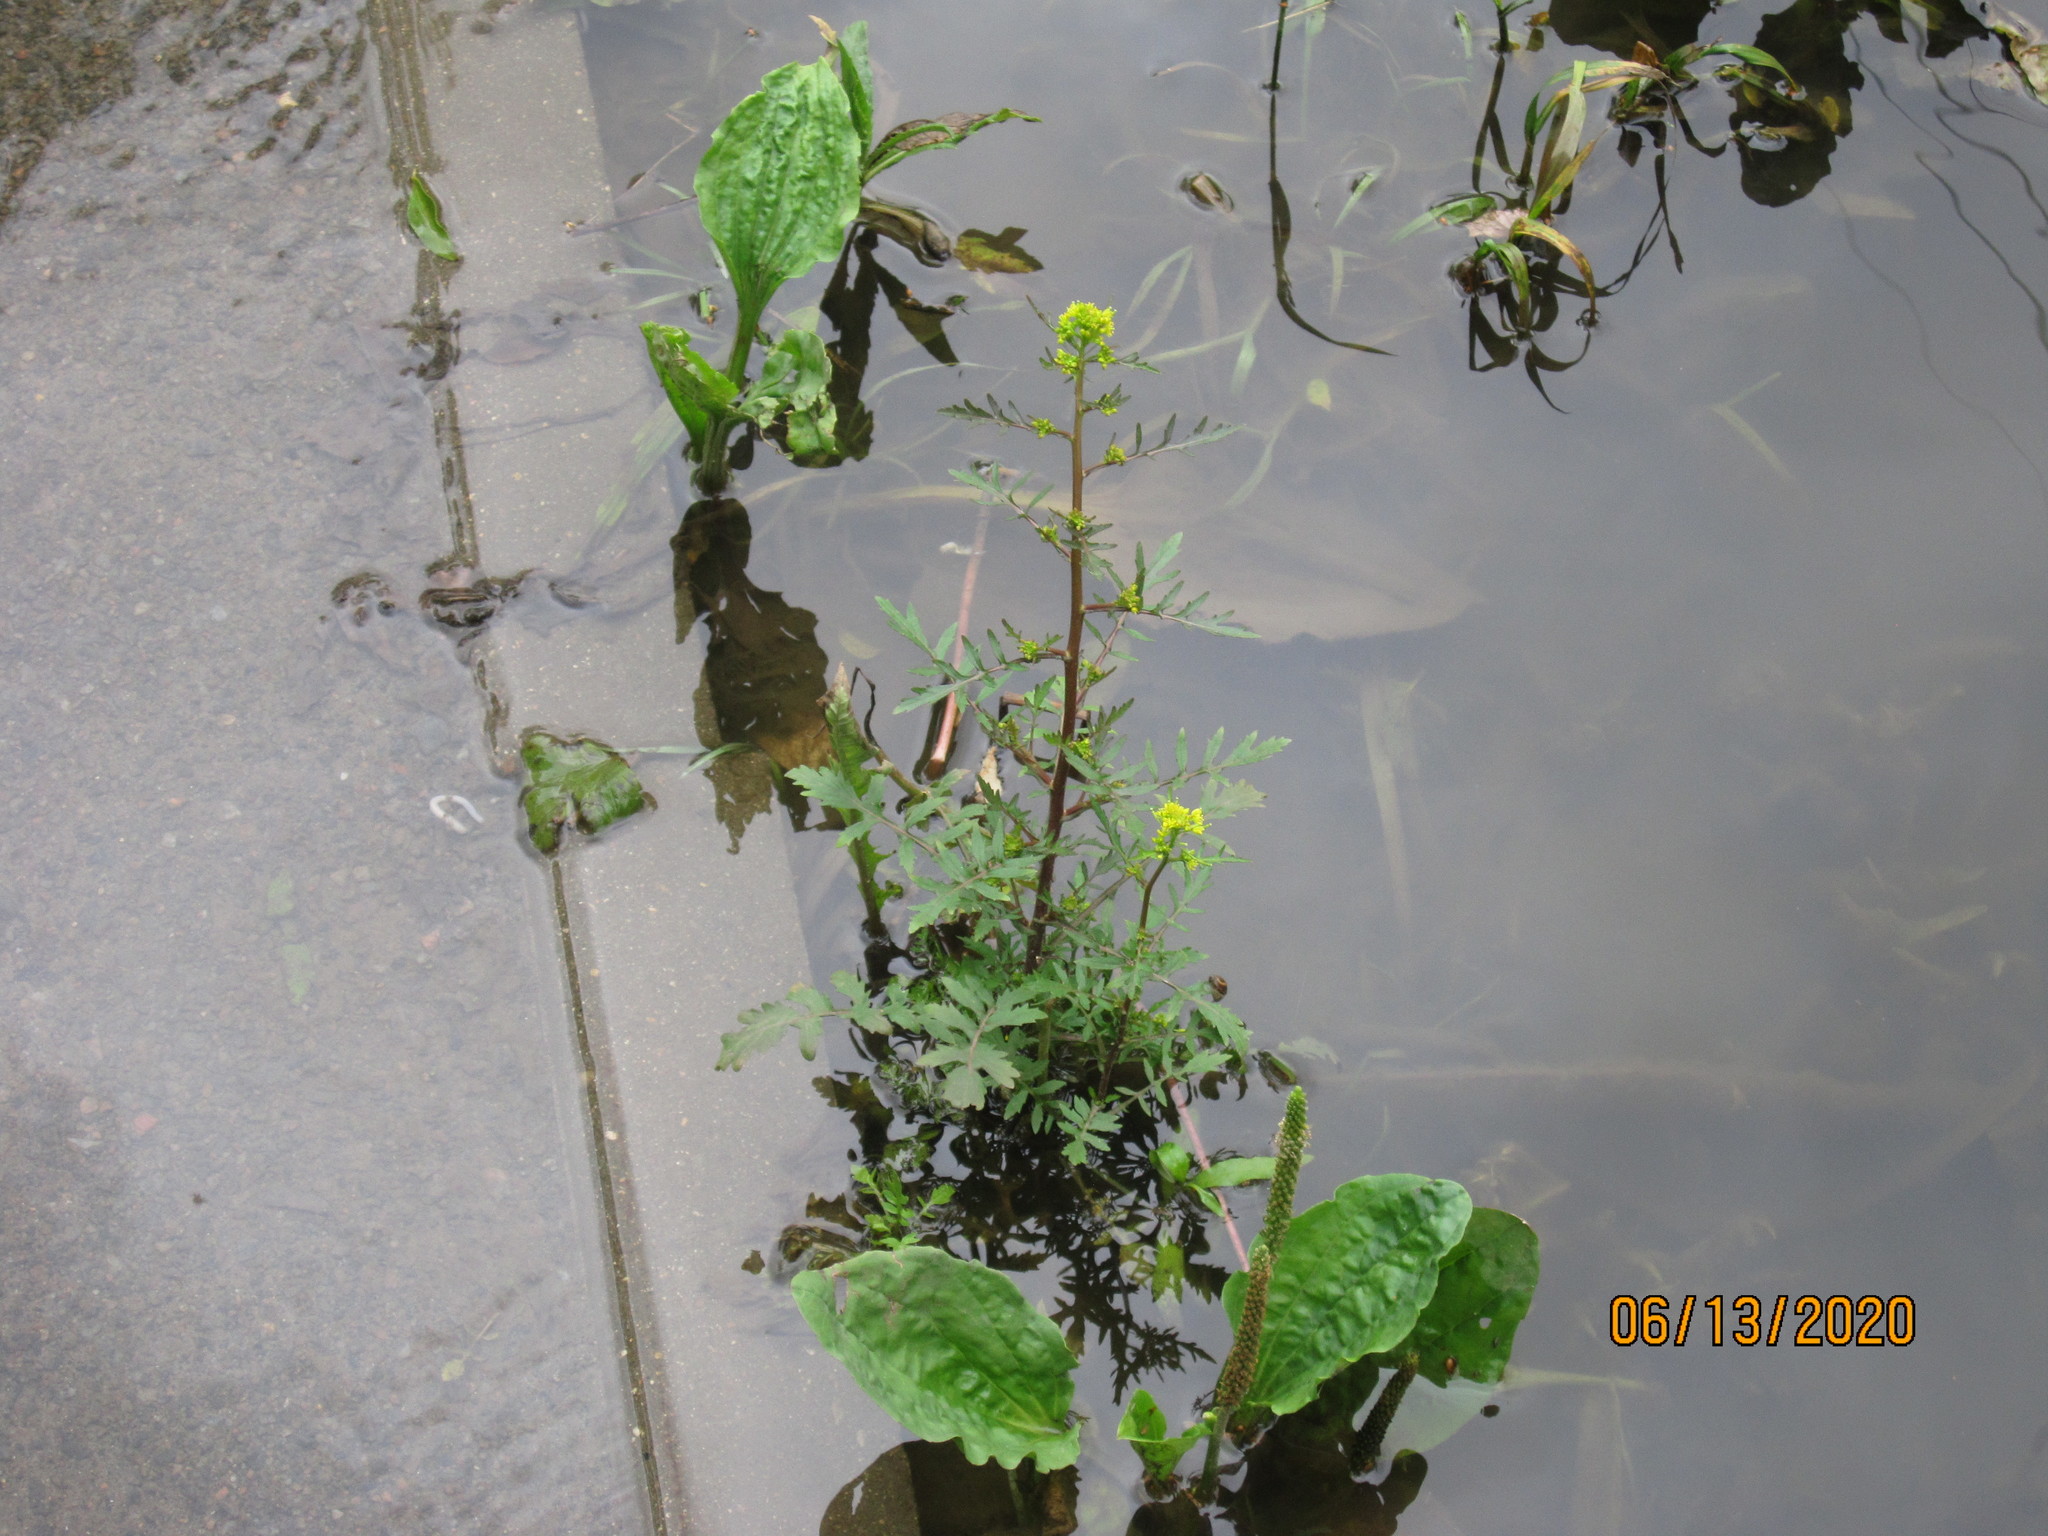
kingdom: Plantae
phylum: Tracheophyta
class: Magnoliopsida
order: Brassicales
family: Brassicaceae
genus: Rorippa
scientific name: Rorippa palustris
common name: Marsh yellow-cress
